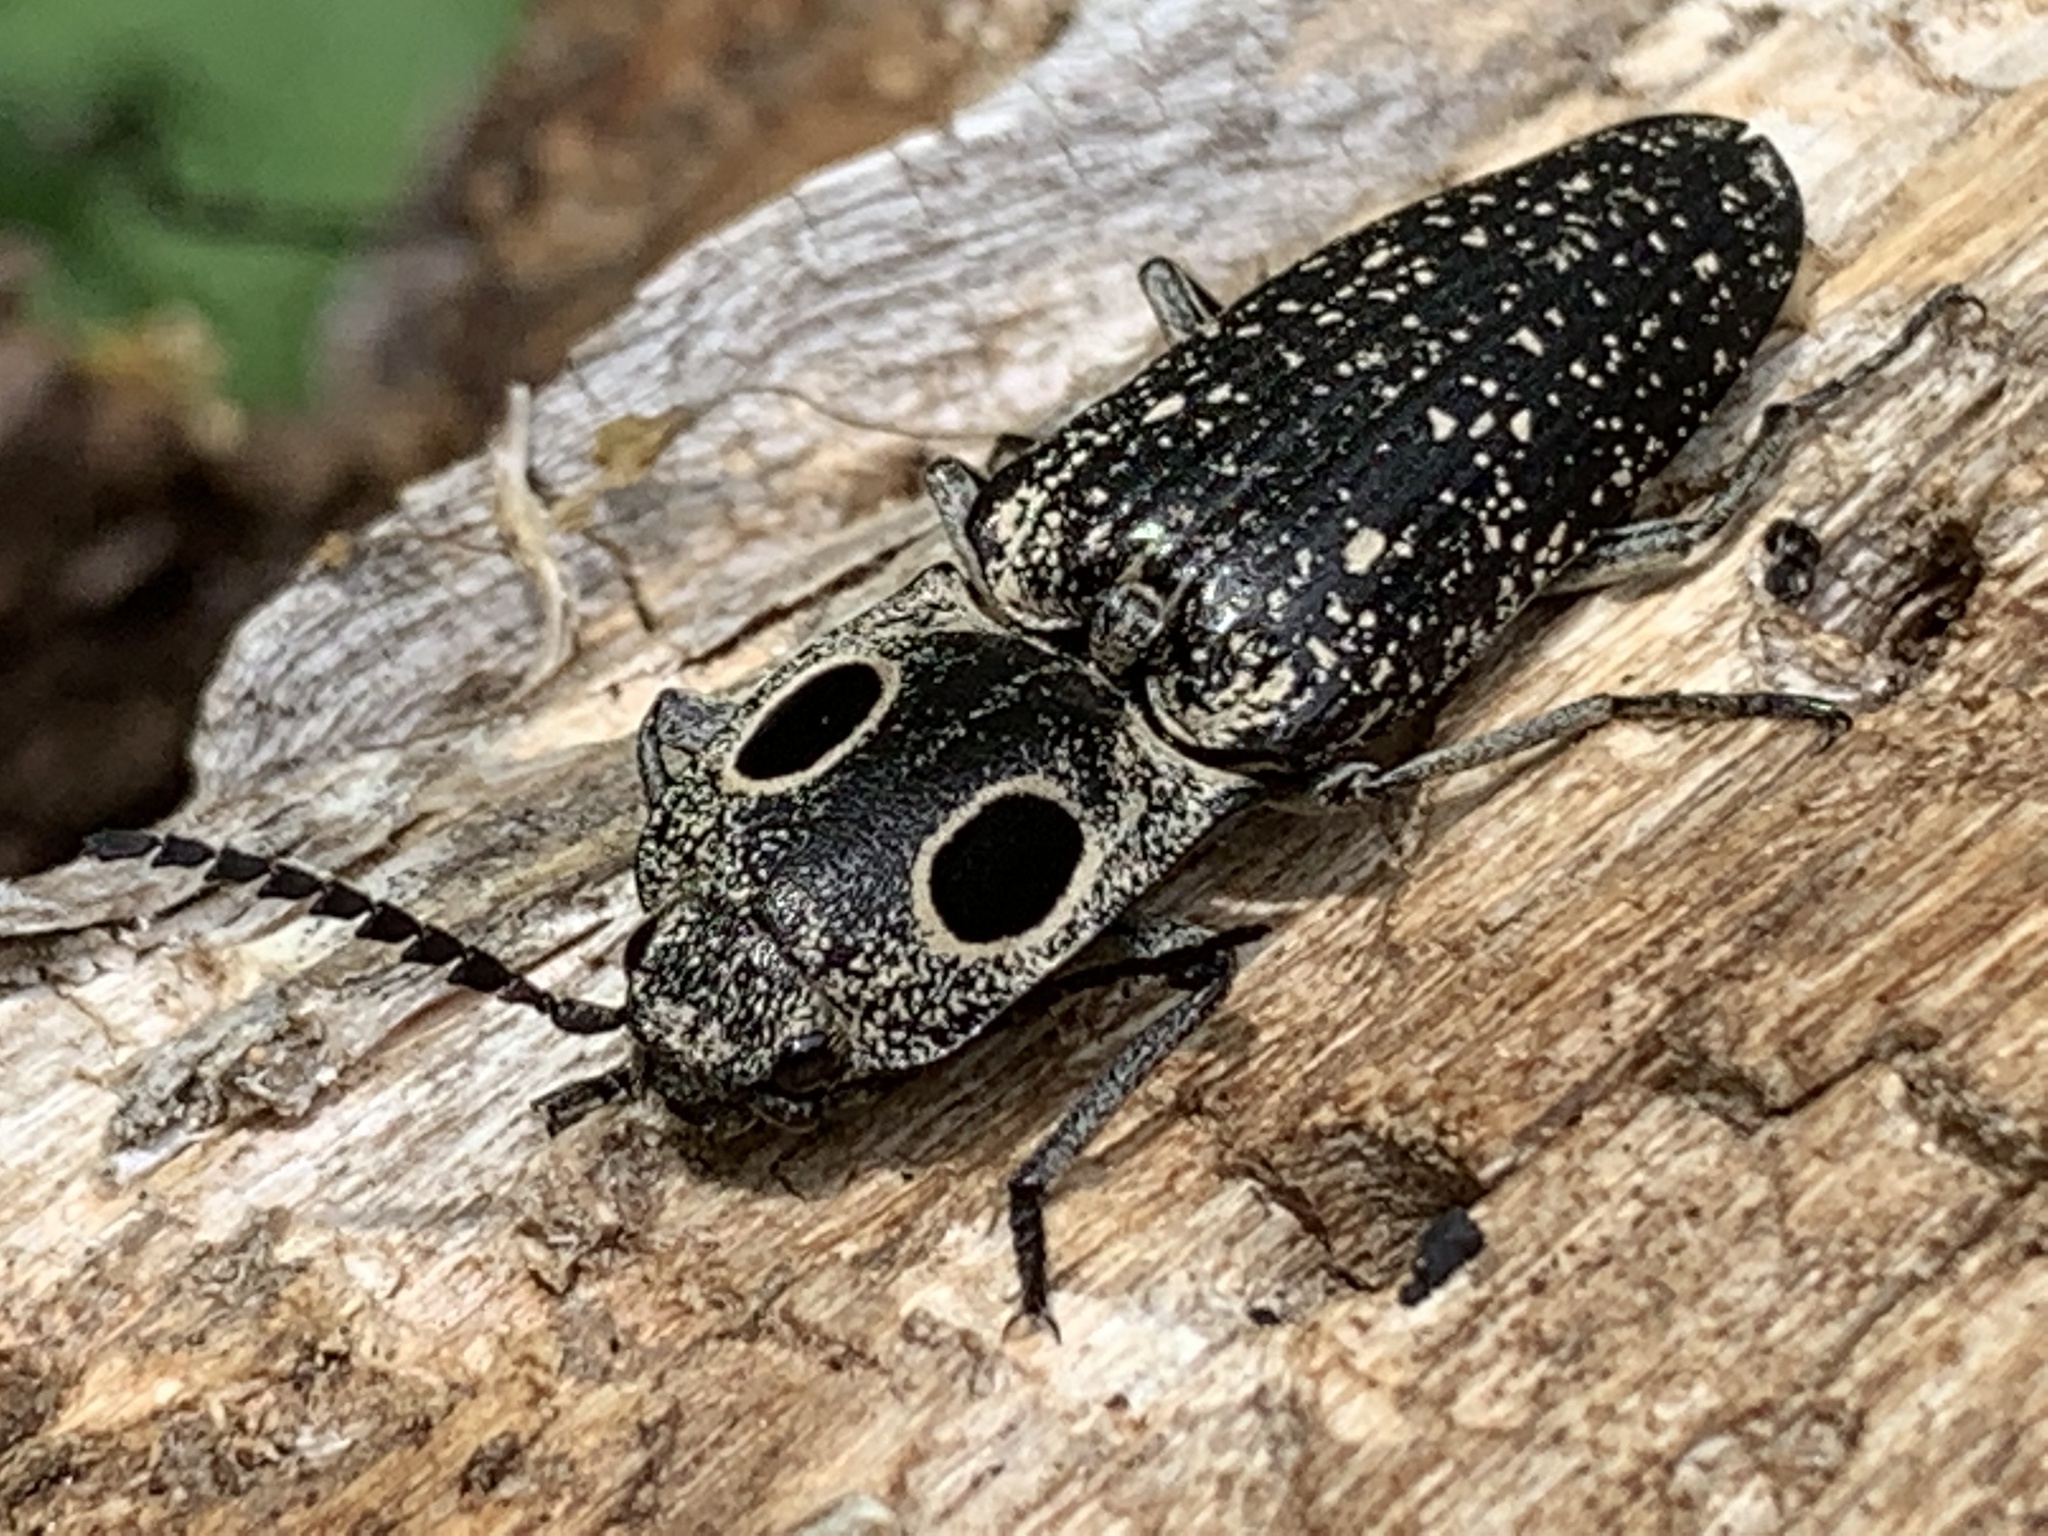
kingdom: Animalia
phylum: Arthropoda
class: Insecta
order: Coleoptera
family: Elateridae
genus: Alaus
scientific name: Alaus oculatus
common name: Eastern eyed click beetle
